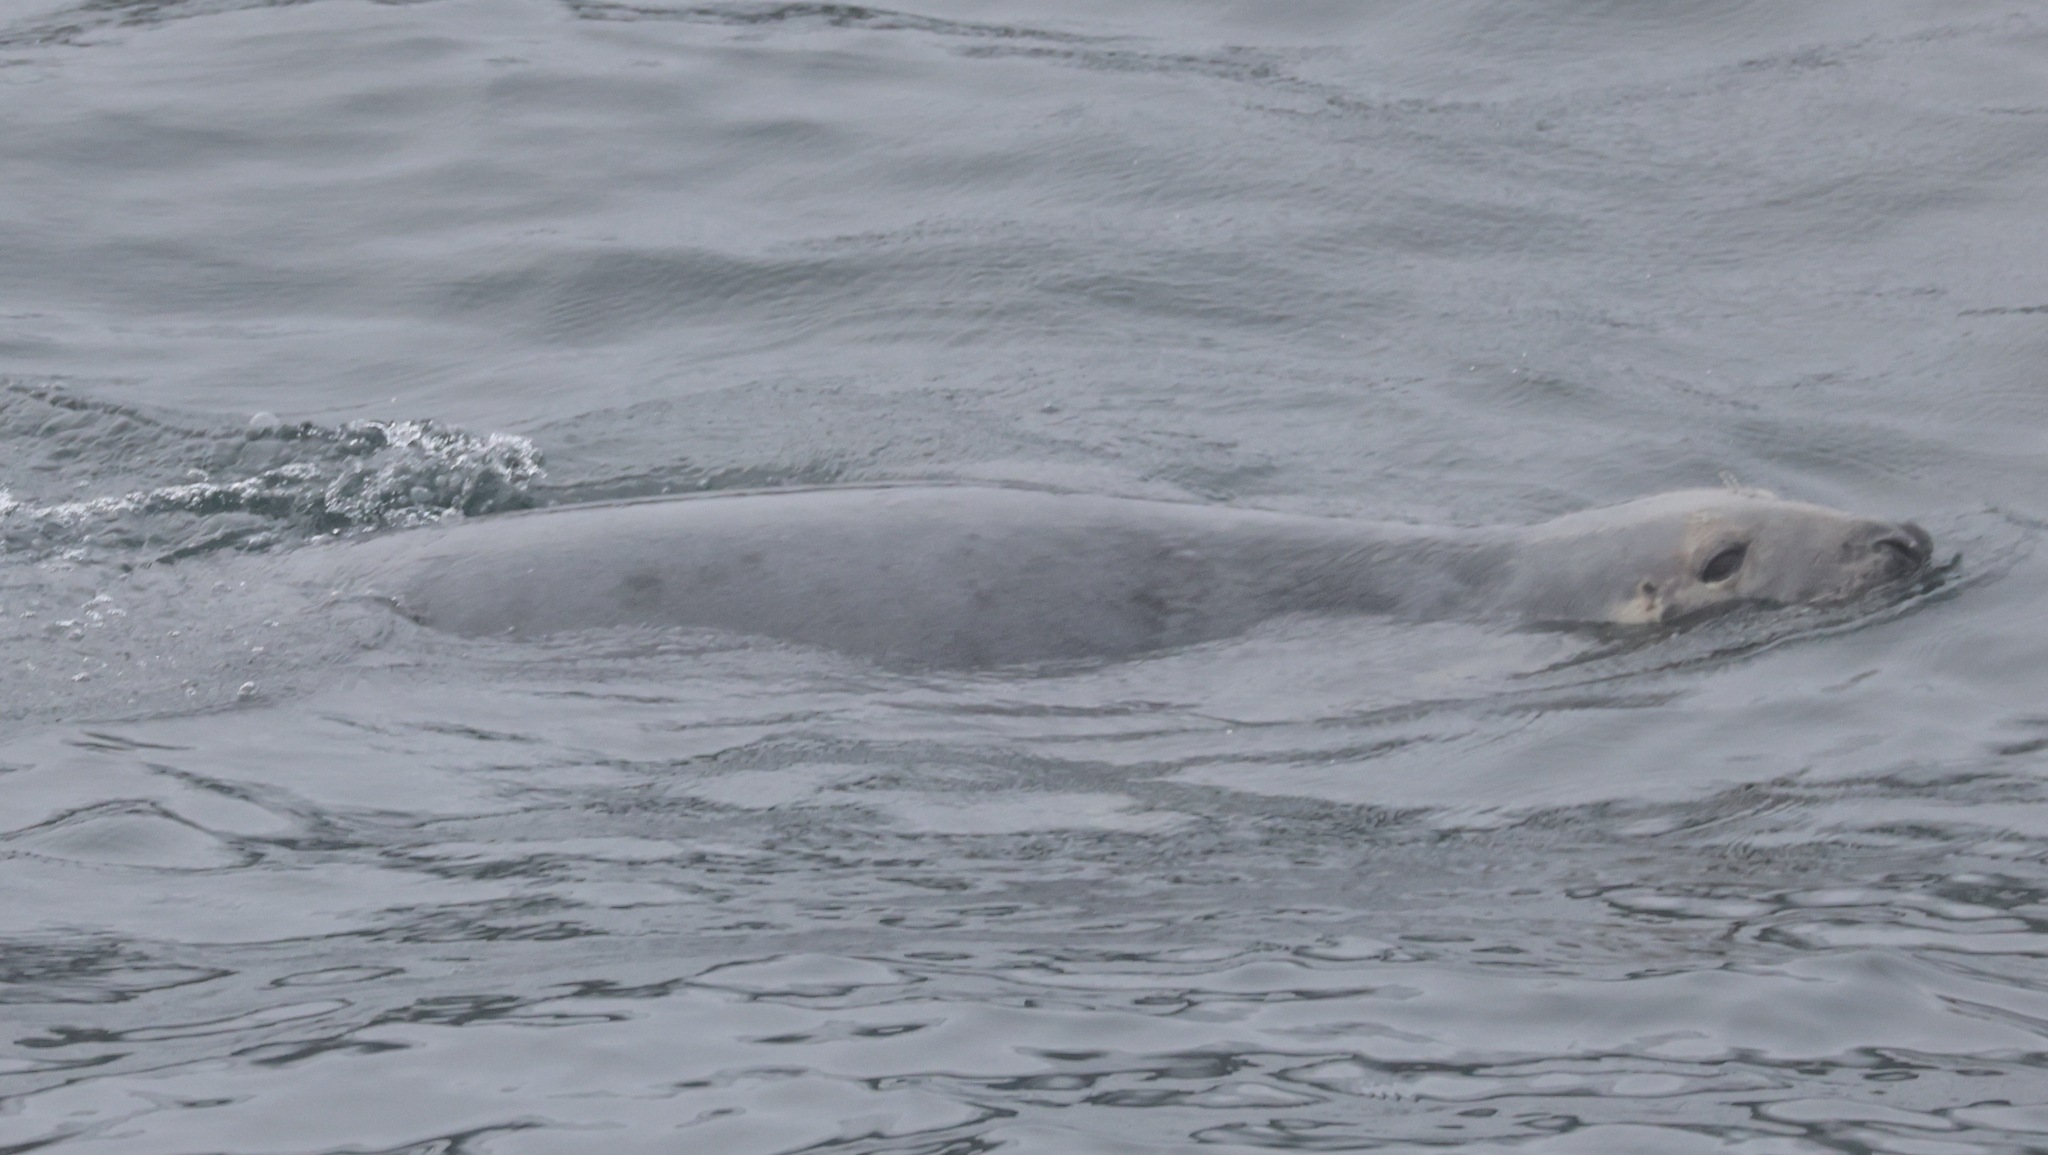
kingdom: Animalia
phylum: Chordata
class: Mammalia
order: Carnivora
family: Phocidae
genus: Halichoerus
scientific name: Halichoerus grypus
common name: Grey seal
